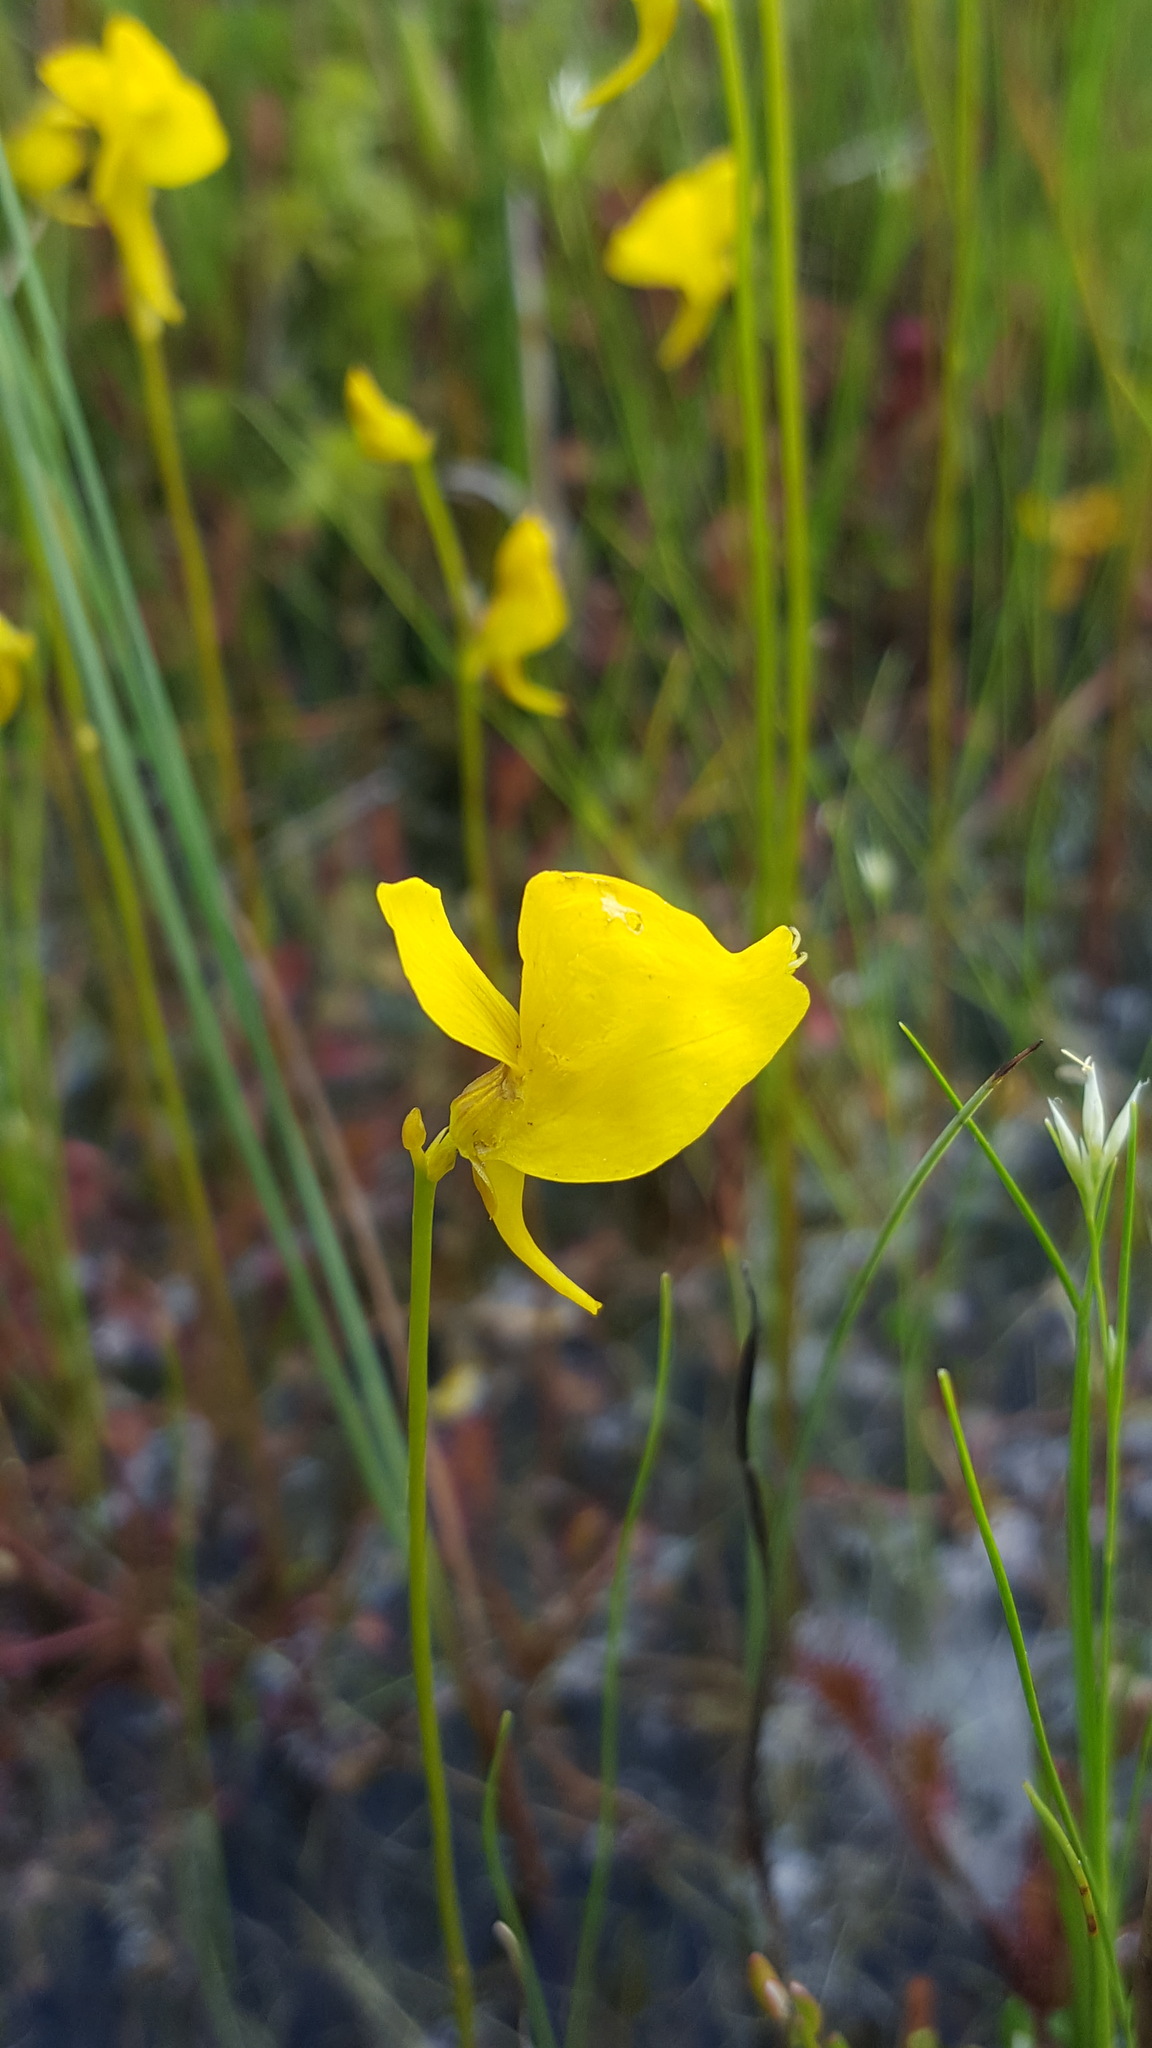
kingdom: Plantae
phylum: Tracheophyta
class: Magnoliopsida
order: Lamiales
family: Lentibulariaceae
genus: Utricularia
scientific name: Utricularia cornuta
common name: Horned bladderwort
